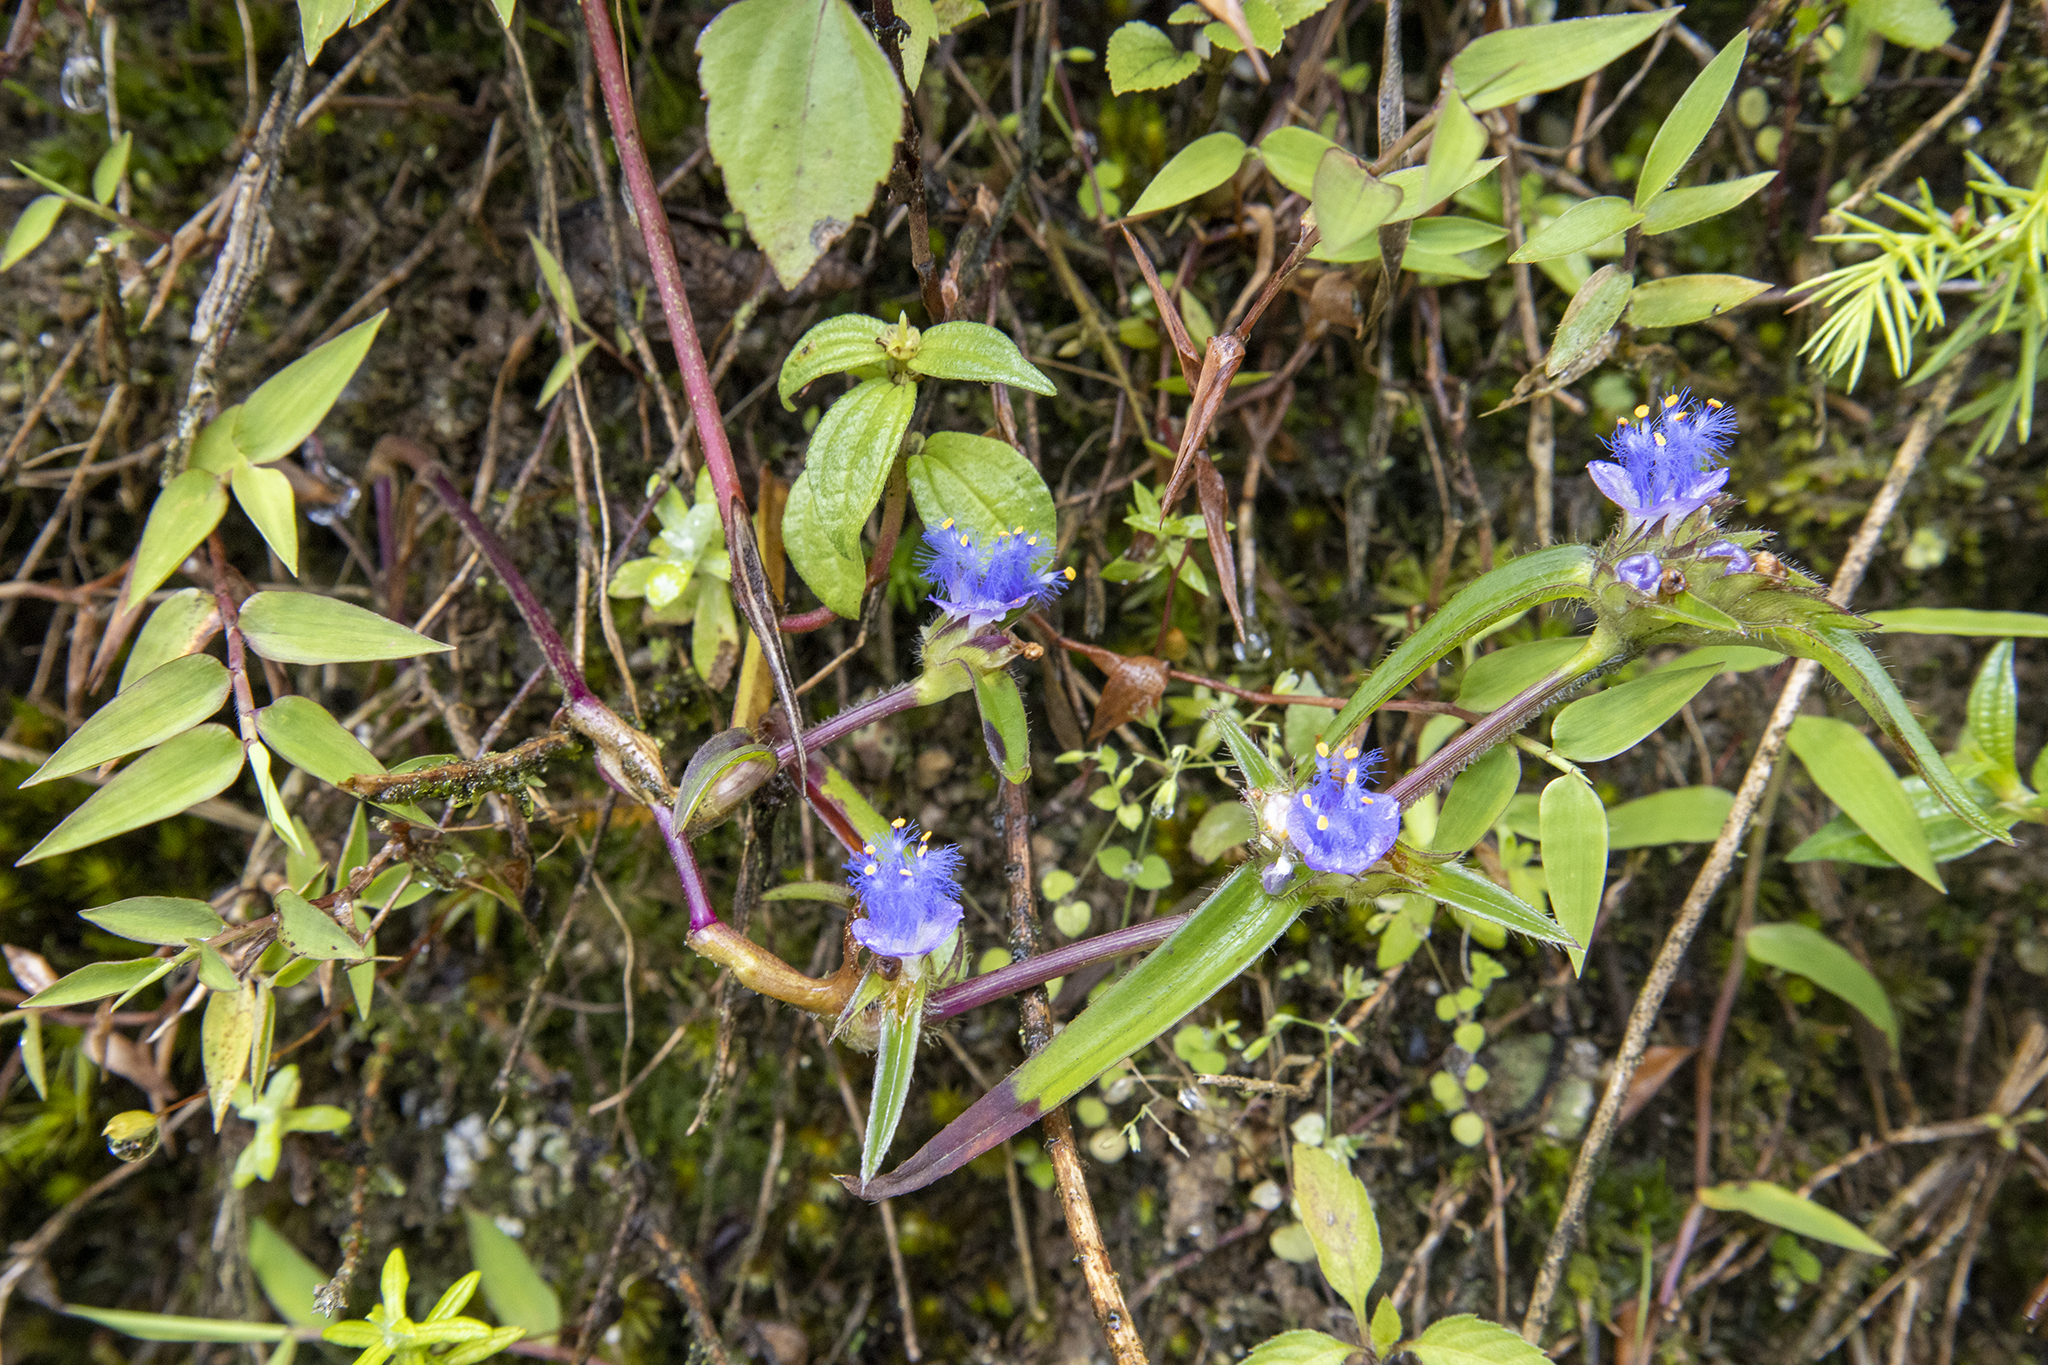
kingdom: Plantae
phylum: Tracheophyta
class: Liliopsida
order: Commelinales
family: Commelinaceae
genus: Cyanotis
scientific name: Cyanotis vaga
